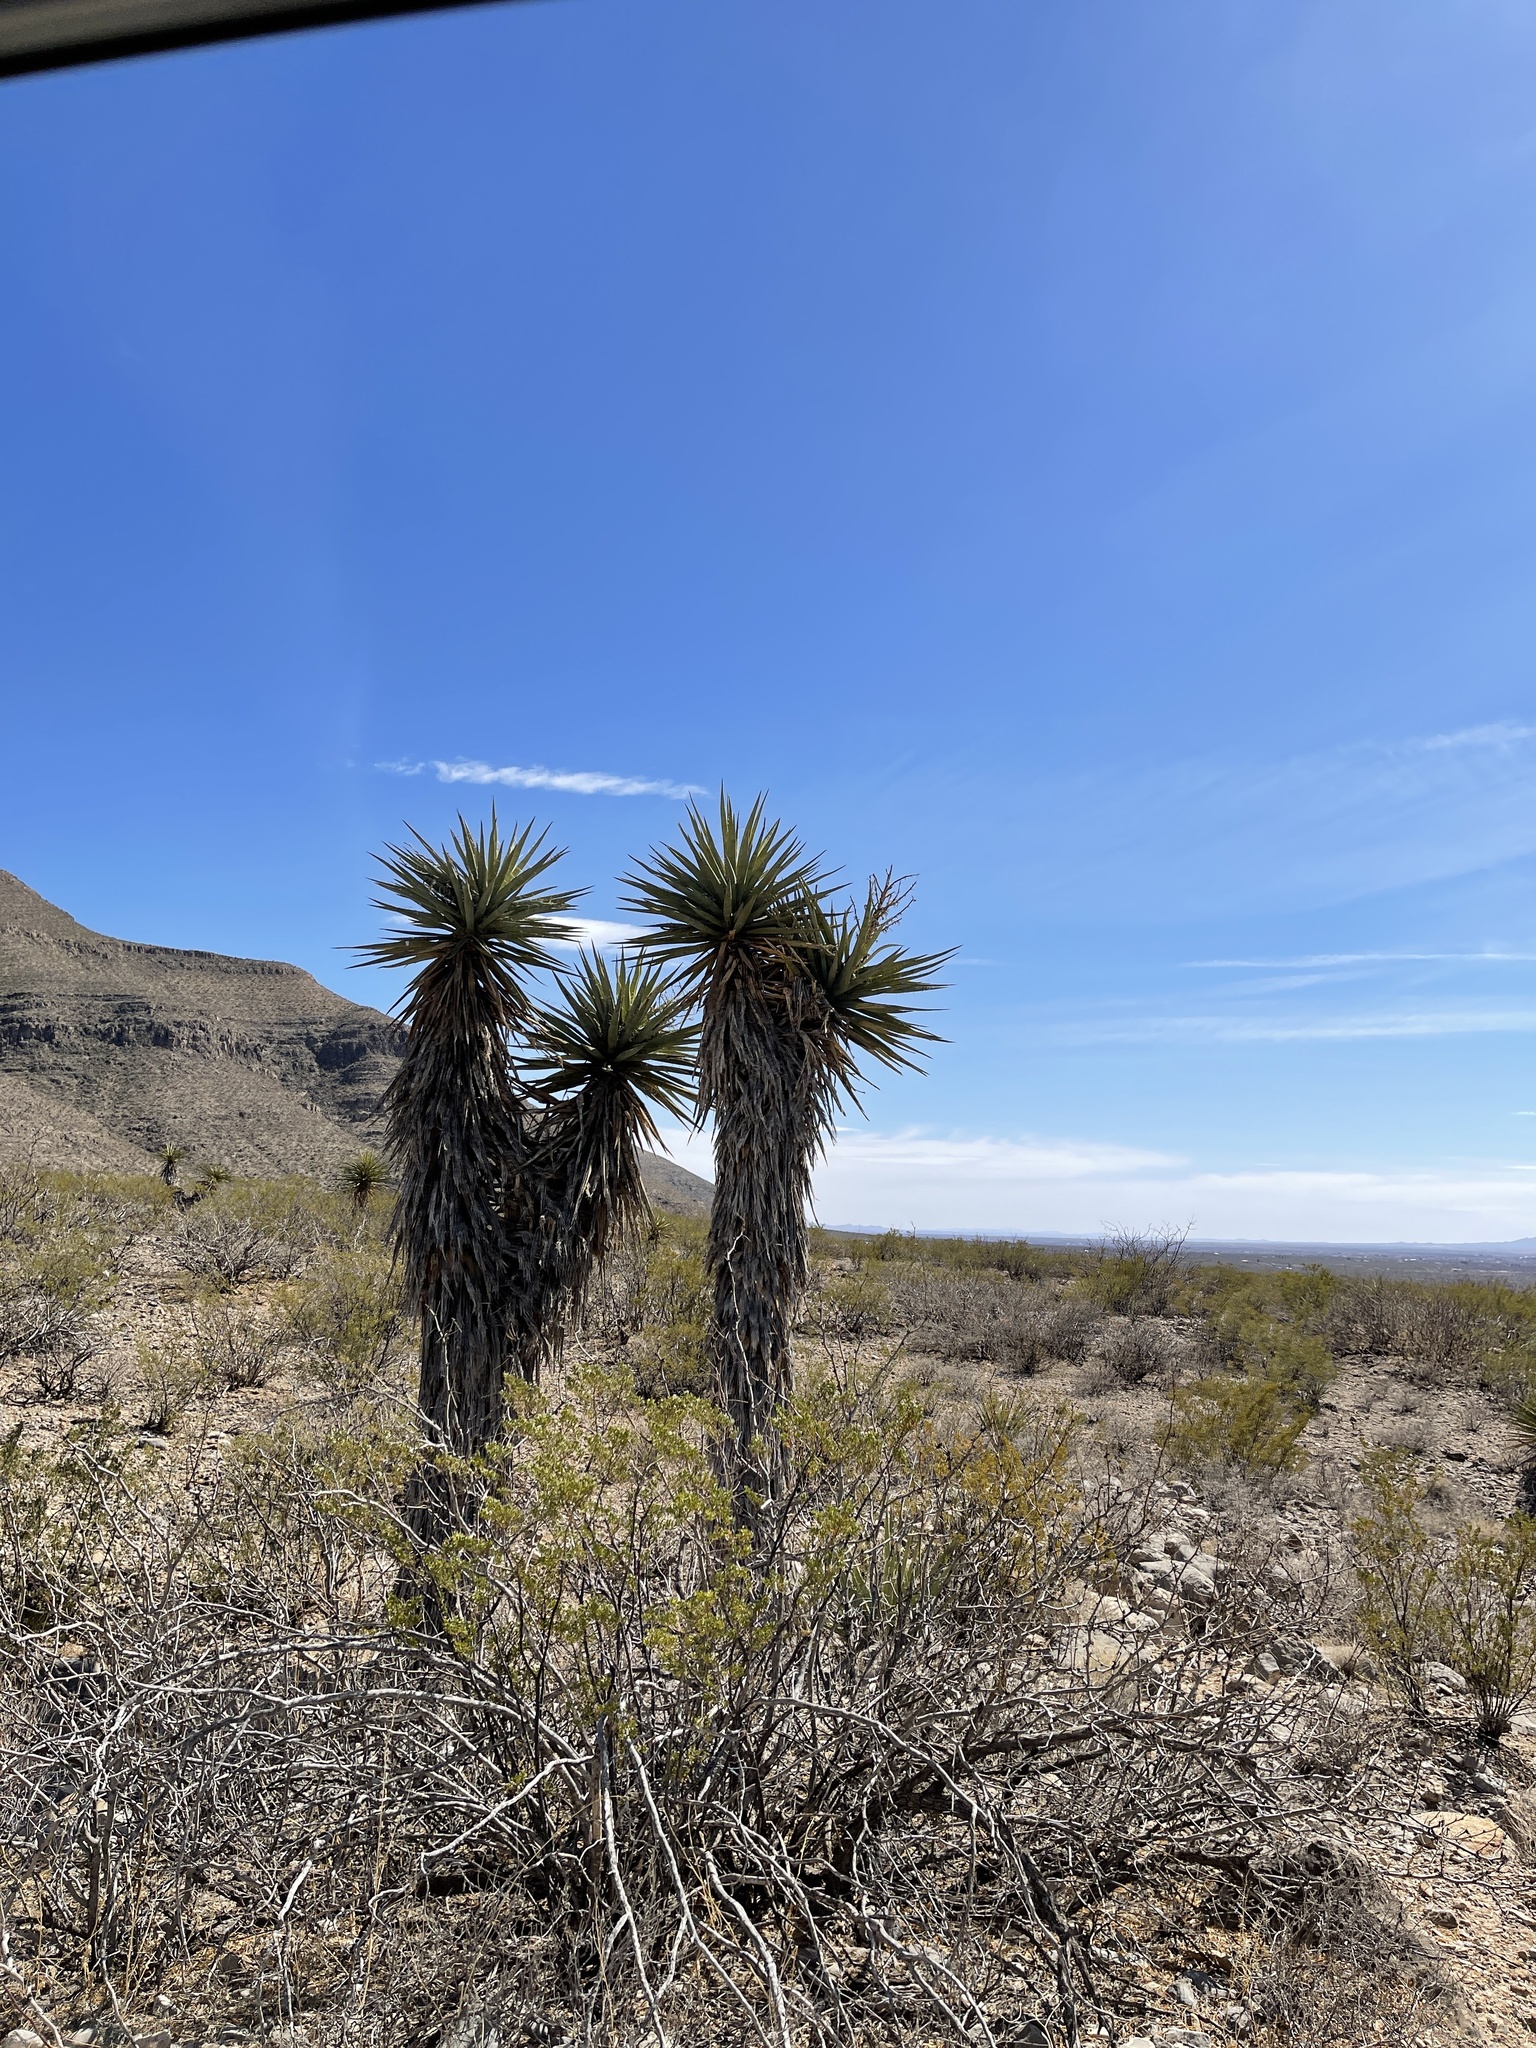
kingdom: Plantae
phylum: Tracheophyta
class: Liliopsida
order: Asparagales
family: Asparagaceae
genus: Yucca
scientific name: Yucca treculiana
